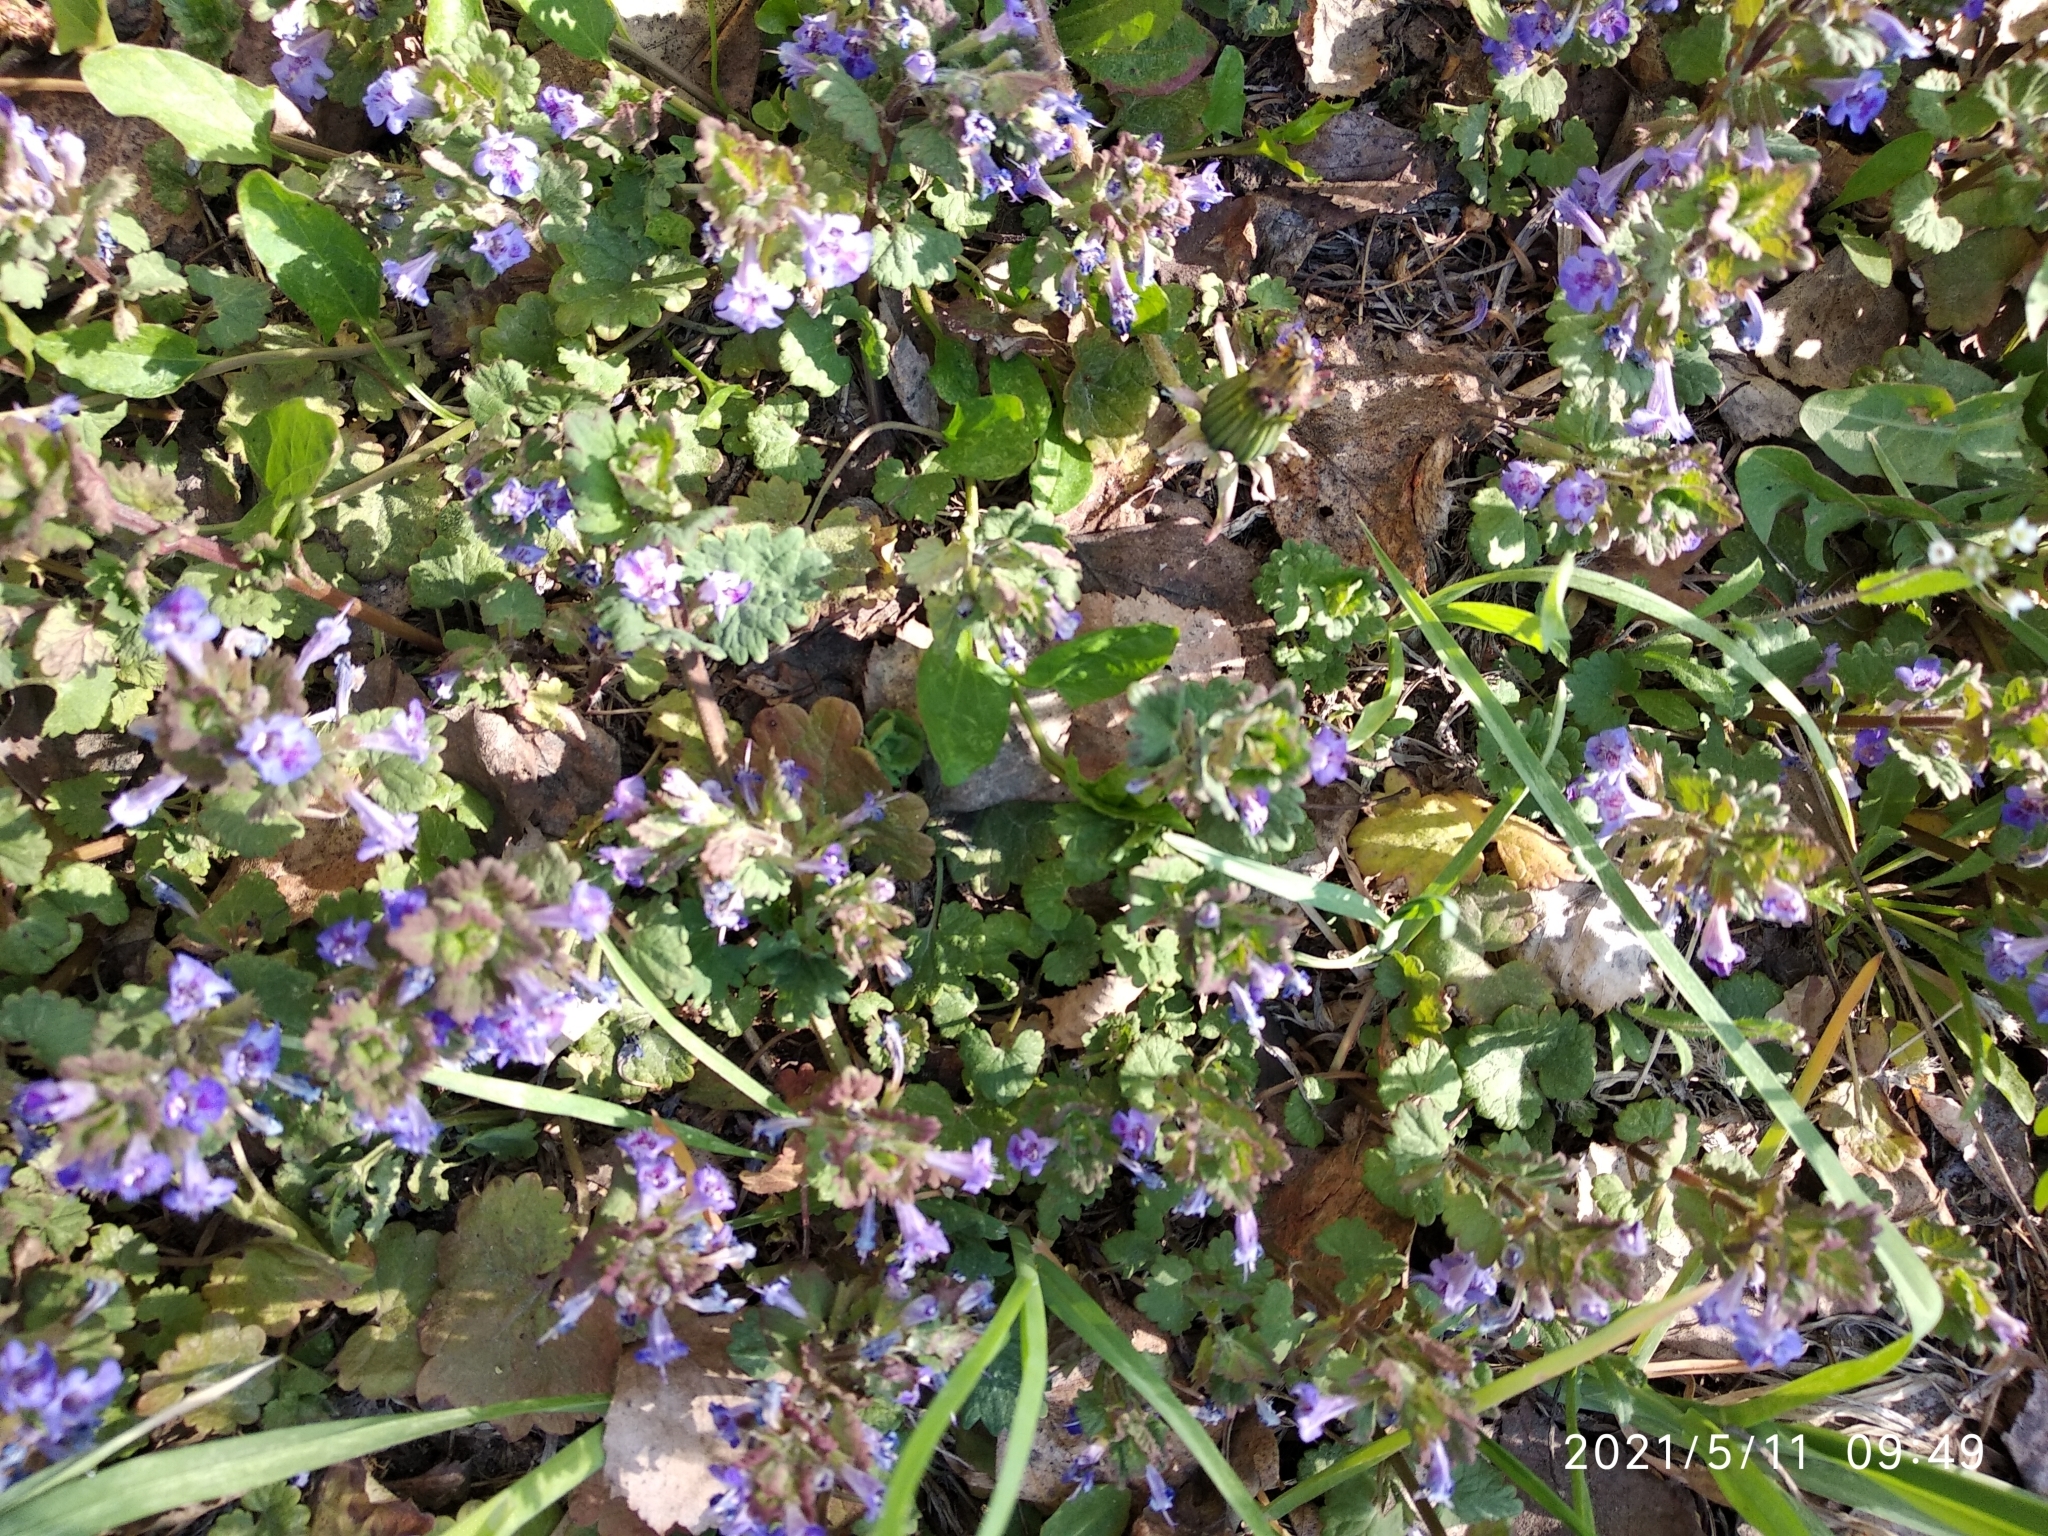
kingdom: Plantae
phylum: Tracheophyta
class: Magnoliopsida
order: Lamiales
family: Lamiaceae
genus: Glechoma
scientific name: Glechoma hederacea
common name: Ground ivy
